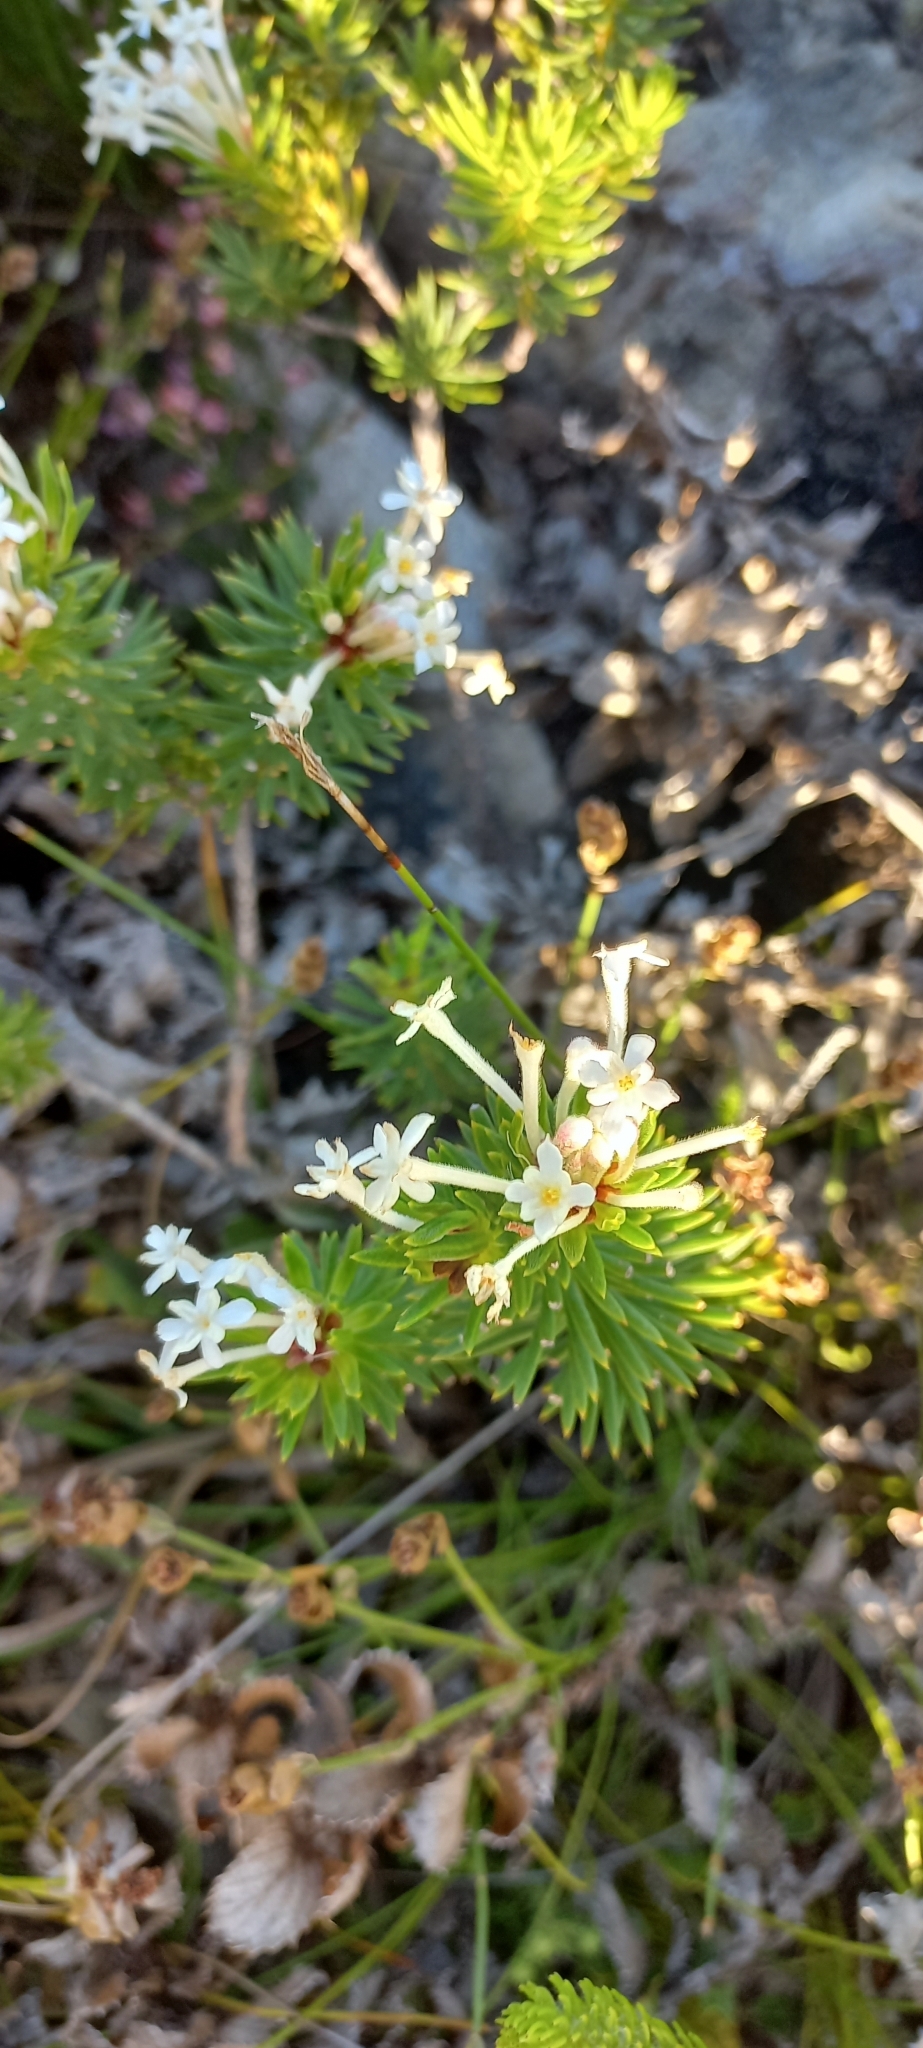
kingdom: Plantae
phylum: Tracheophyta
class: Magnoliopsida
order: Malvales
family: Thymelaeaceae
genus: Gnidia
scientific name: Gnidia pinifolia
